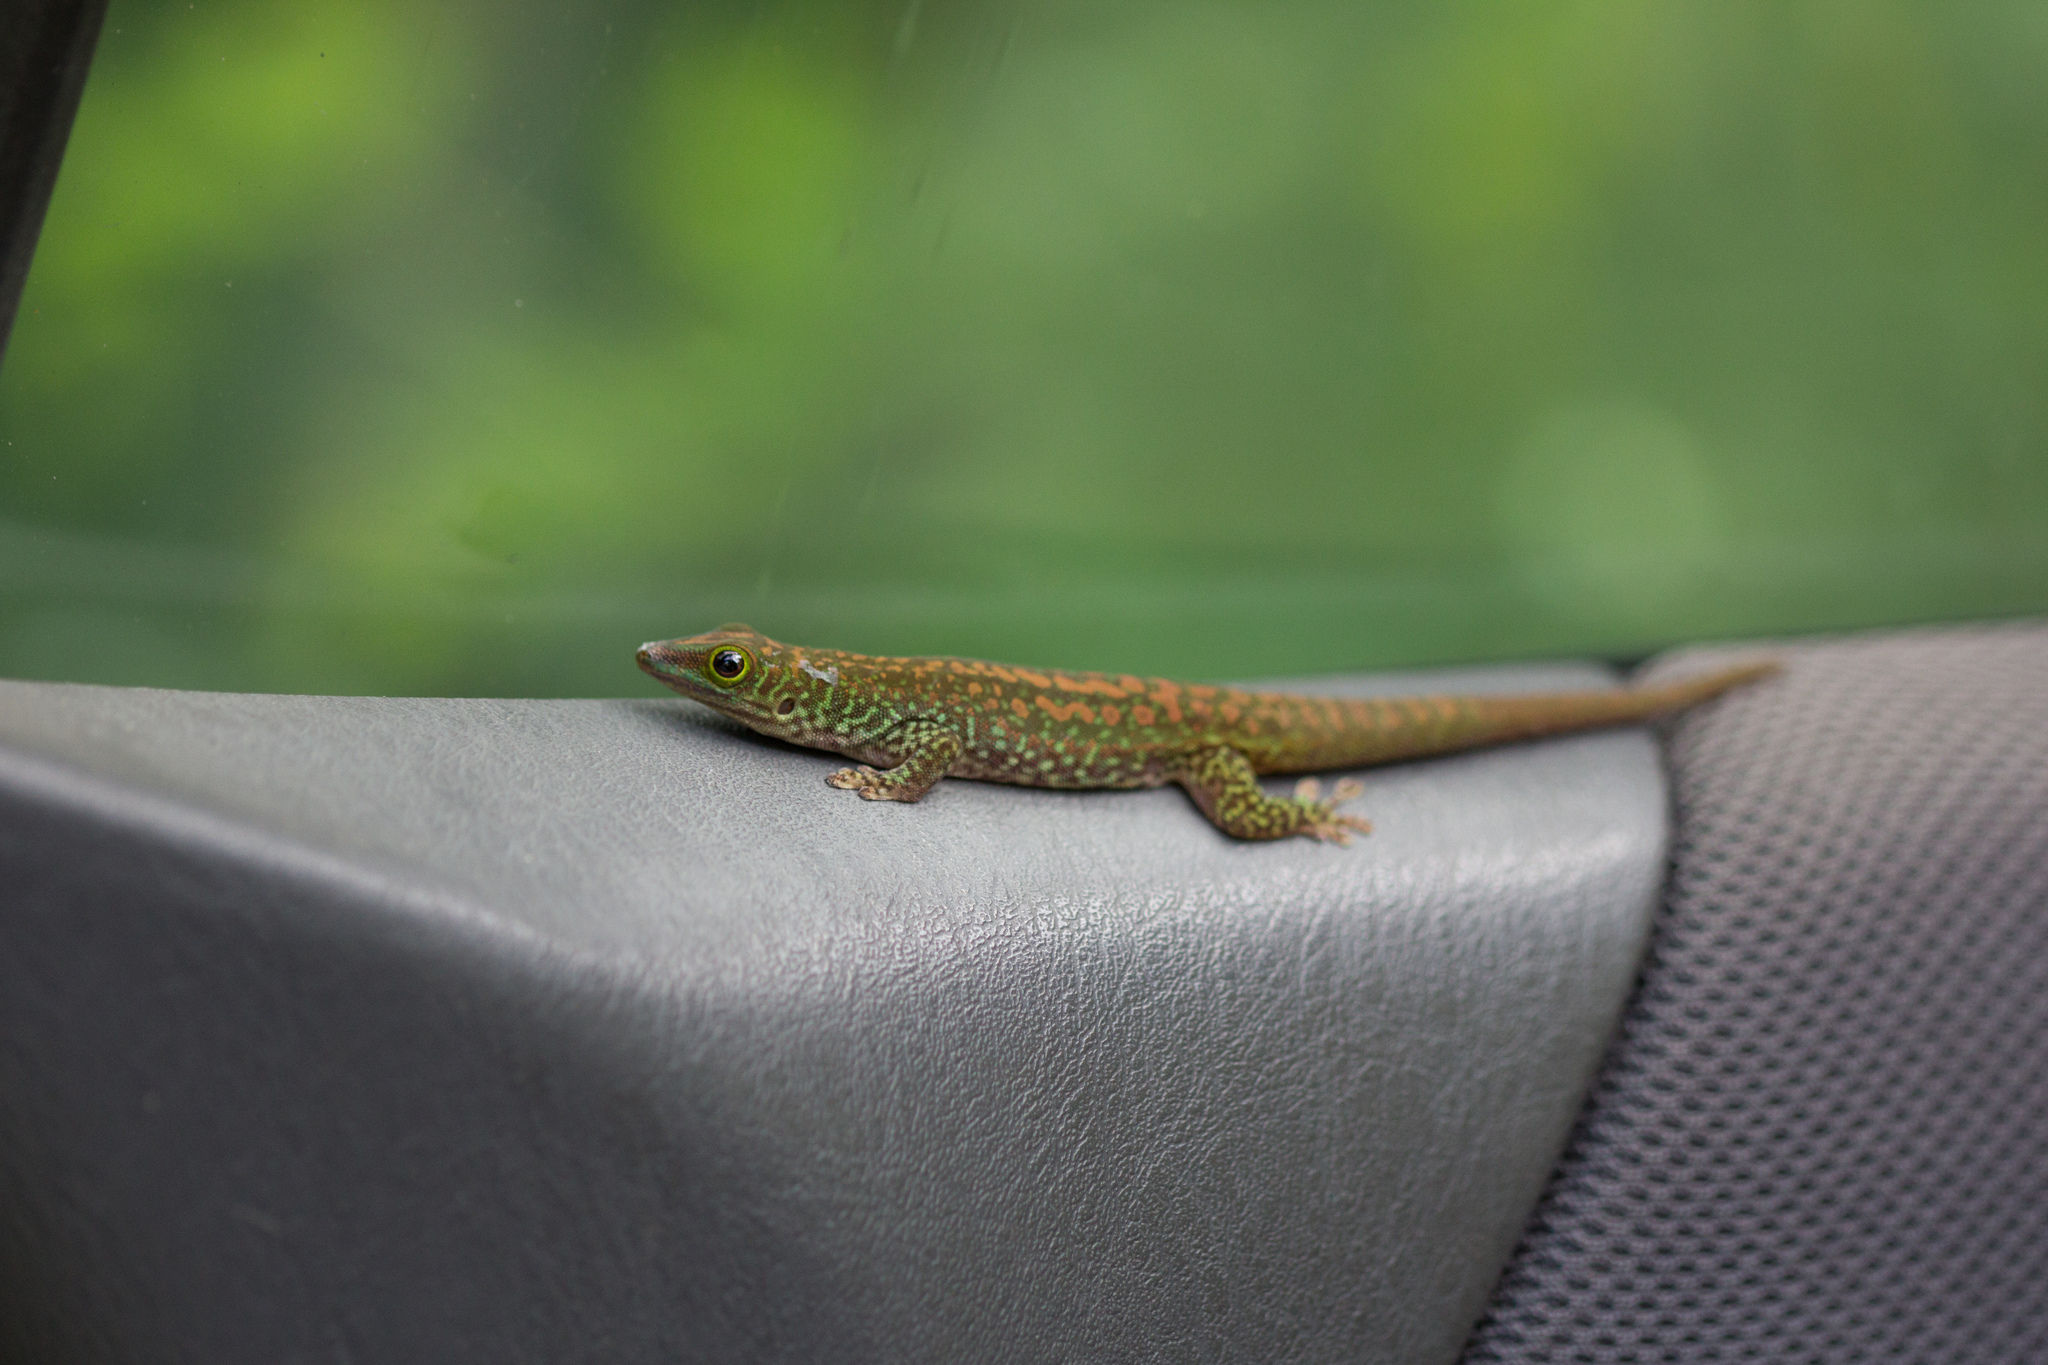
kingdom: Animalia
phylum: Chordata
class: Squamata
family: Gekkonidae
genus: Phelsuma
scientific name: Phelsuma sundbergi
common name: Seychelles giant day gecko
